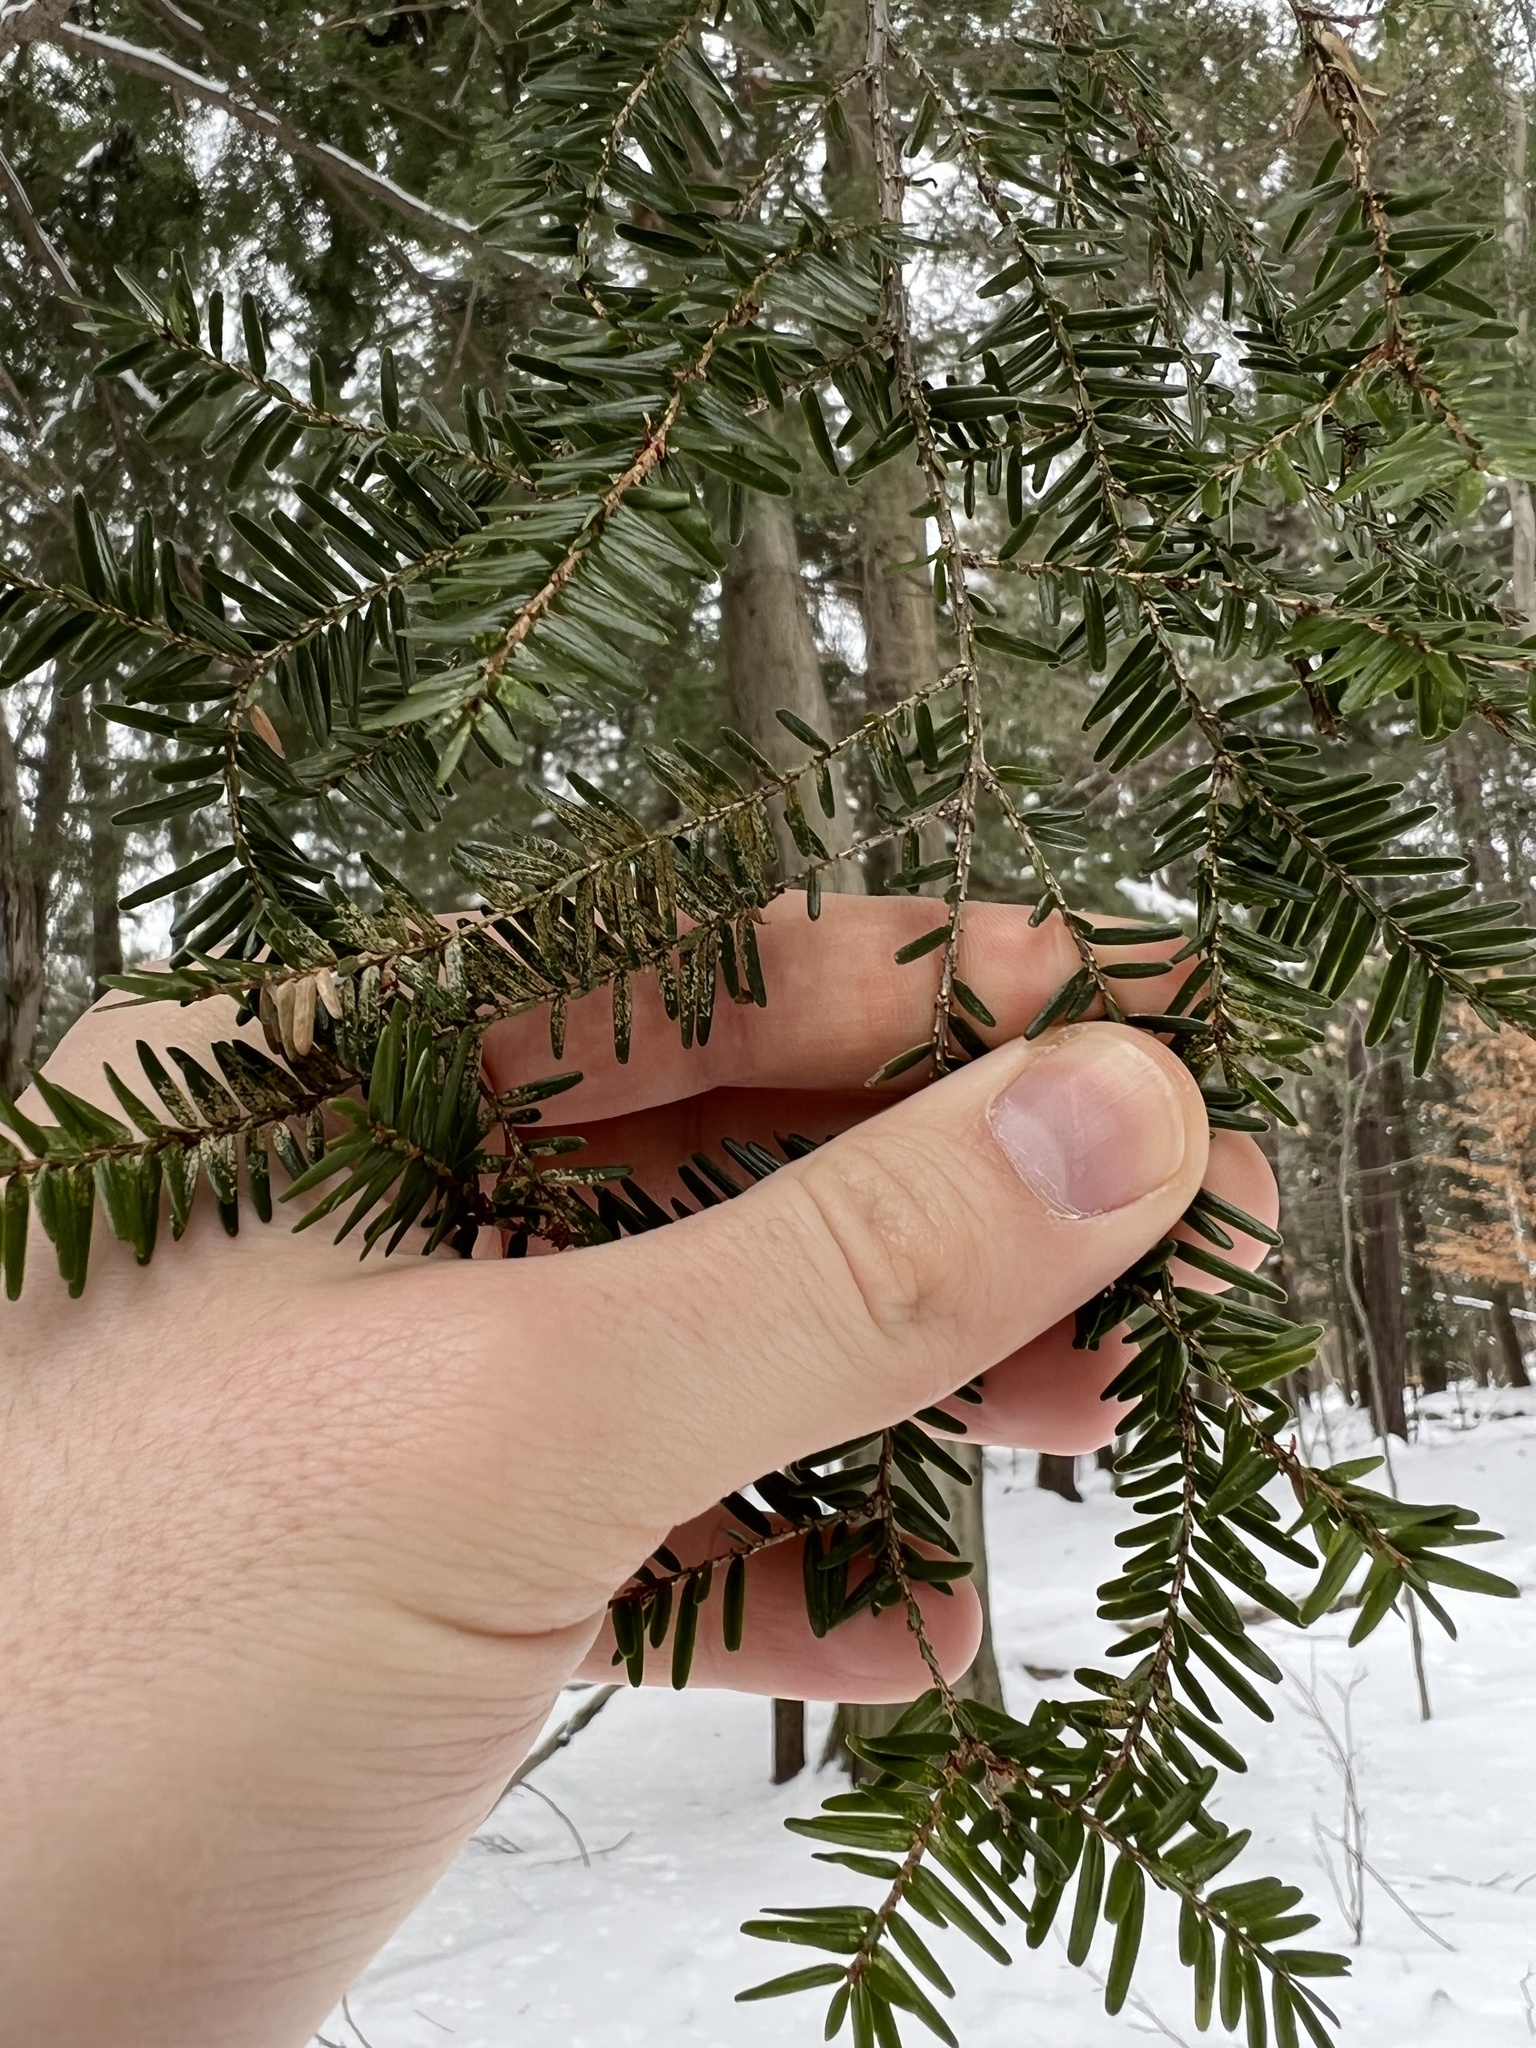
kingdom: Plantae
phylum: Tracheophyta
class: Pinopsida
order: Pinales
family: Pinaceae
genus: Tsuga
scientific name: Tsuga canadensis
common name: Eastern hemlock
